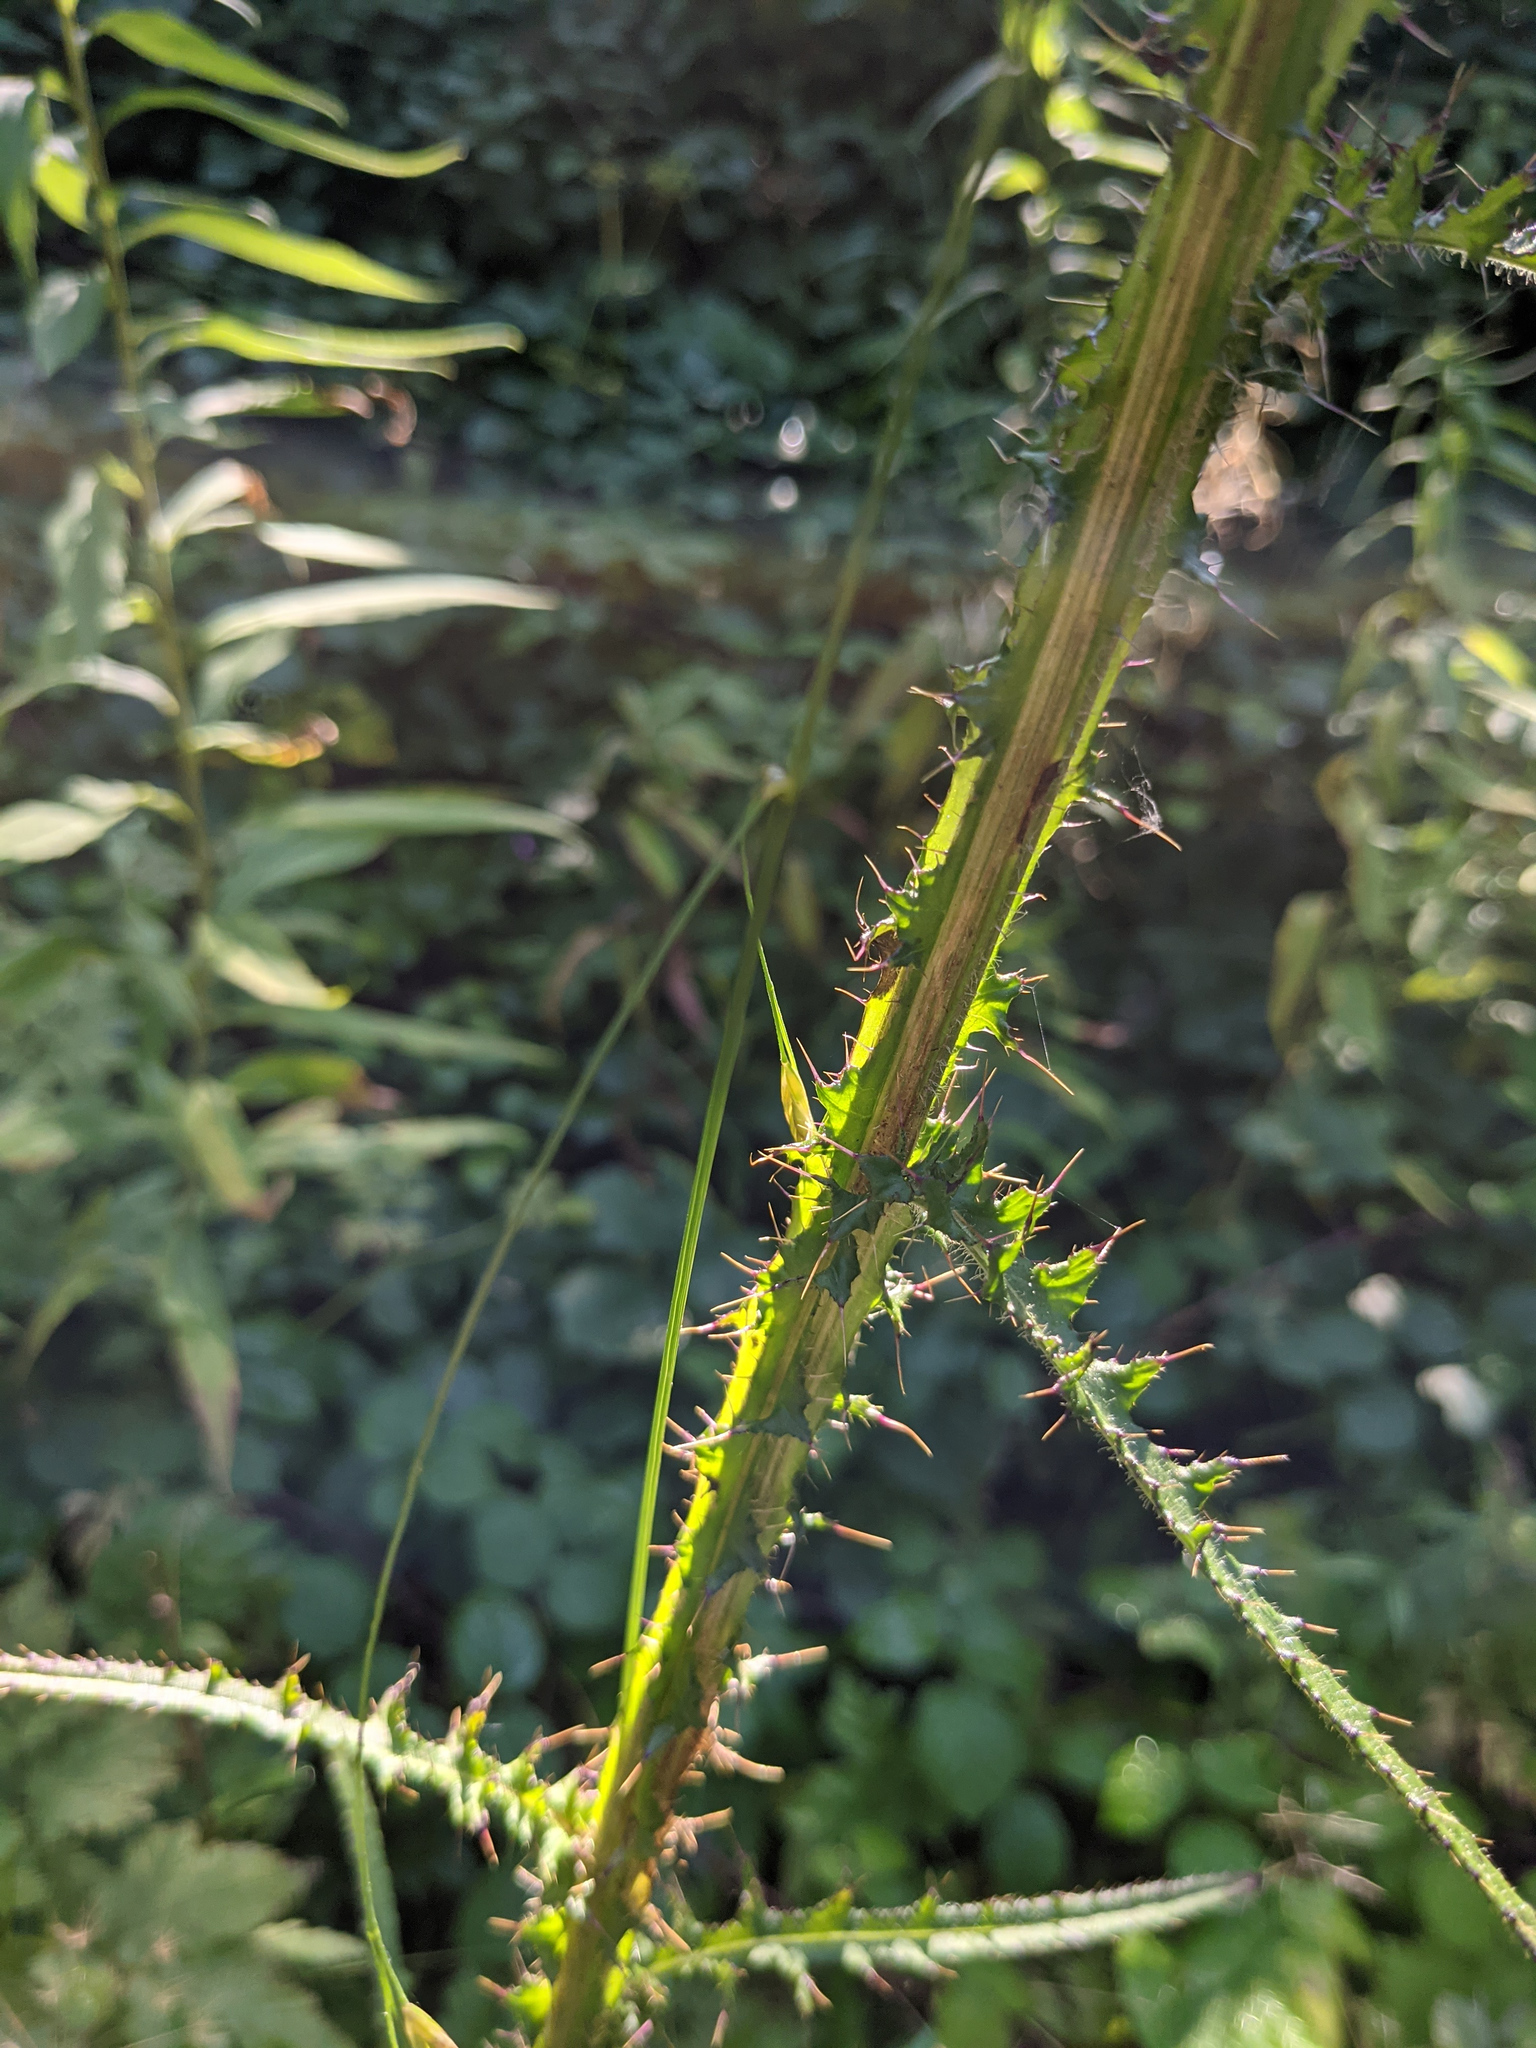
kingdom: Plantae
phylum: Tracheophyta
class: Magnoliopsida
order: Asterales
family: Asteraceae
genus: Cirsium
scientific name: Cirsium palustre
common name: Marsh thistle
